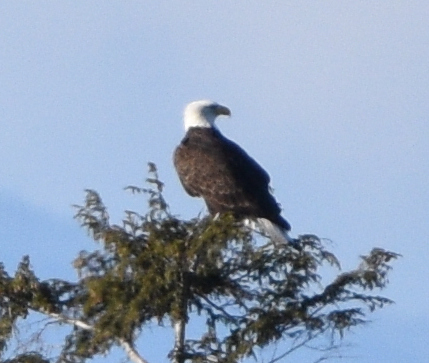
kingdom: Animalia
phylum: Chordata
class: Aves
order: Accipitriformes
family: Accipitridae
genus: Haliaeetus
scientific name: Haliaeetus leucocephalus
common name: Bald eagle
